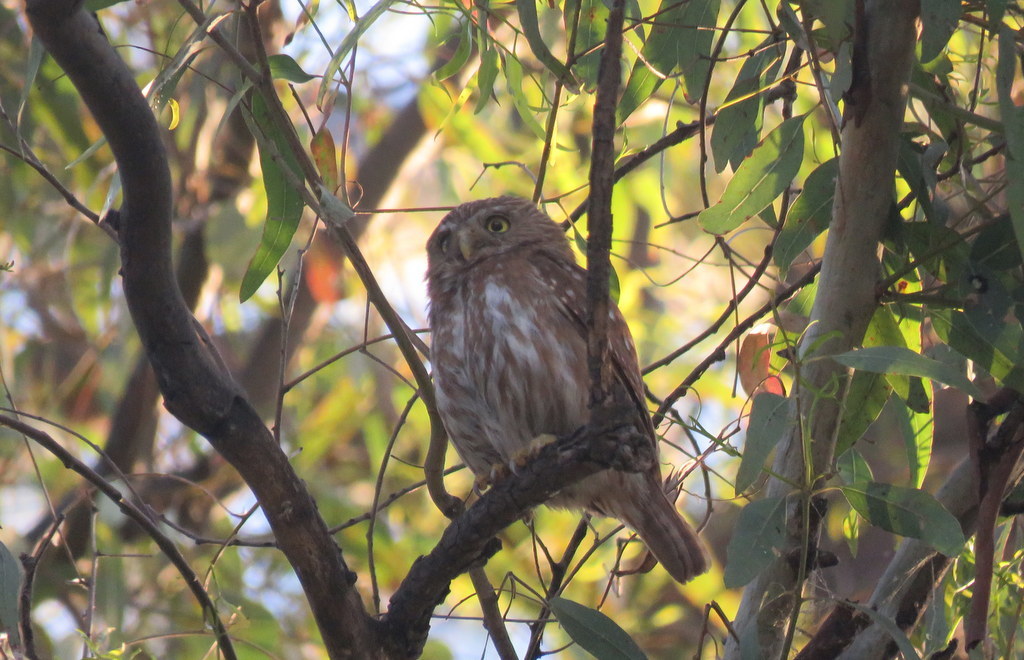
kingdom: Animalia
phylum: Chordata
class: Aves
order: Strigiformes
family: Strigidae
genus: Glaucidium
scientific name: Glaucidium brasilianum
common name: Ferruginous pygmy-owl
